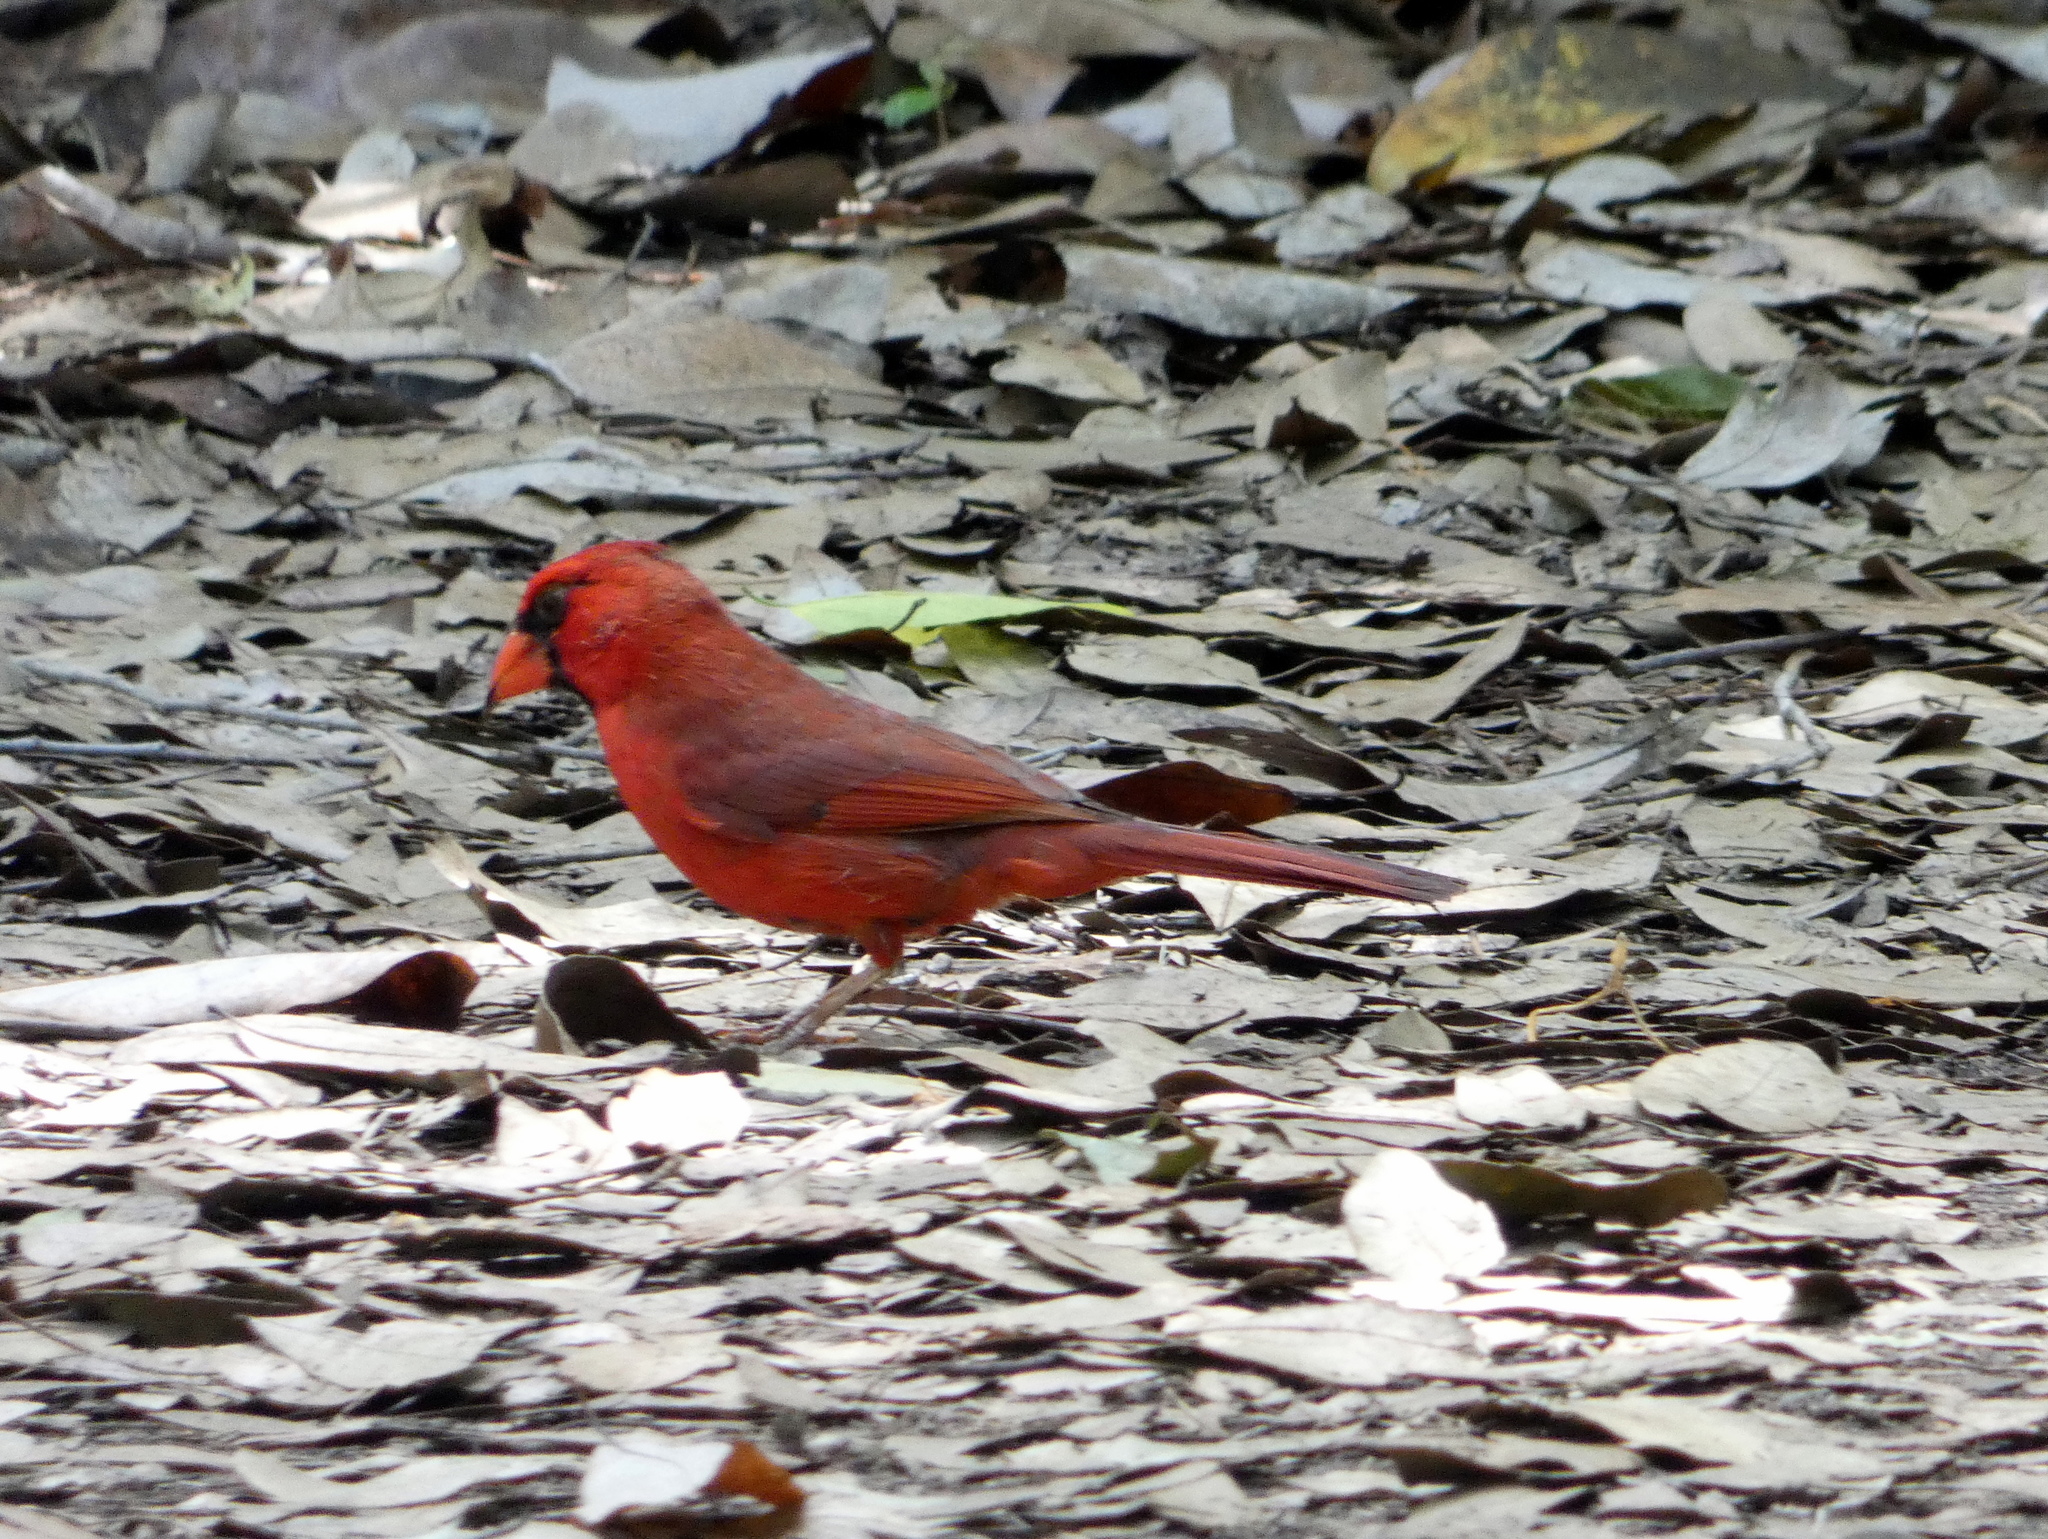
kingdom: Animalia
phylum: Chordata
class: Aves
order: Passeriformes
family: Cardinalidae
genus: Cardinalis
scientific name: Cardinalis cardinalis
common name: Northern cardinal
